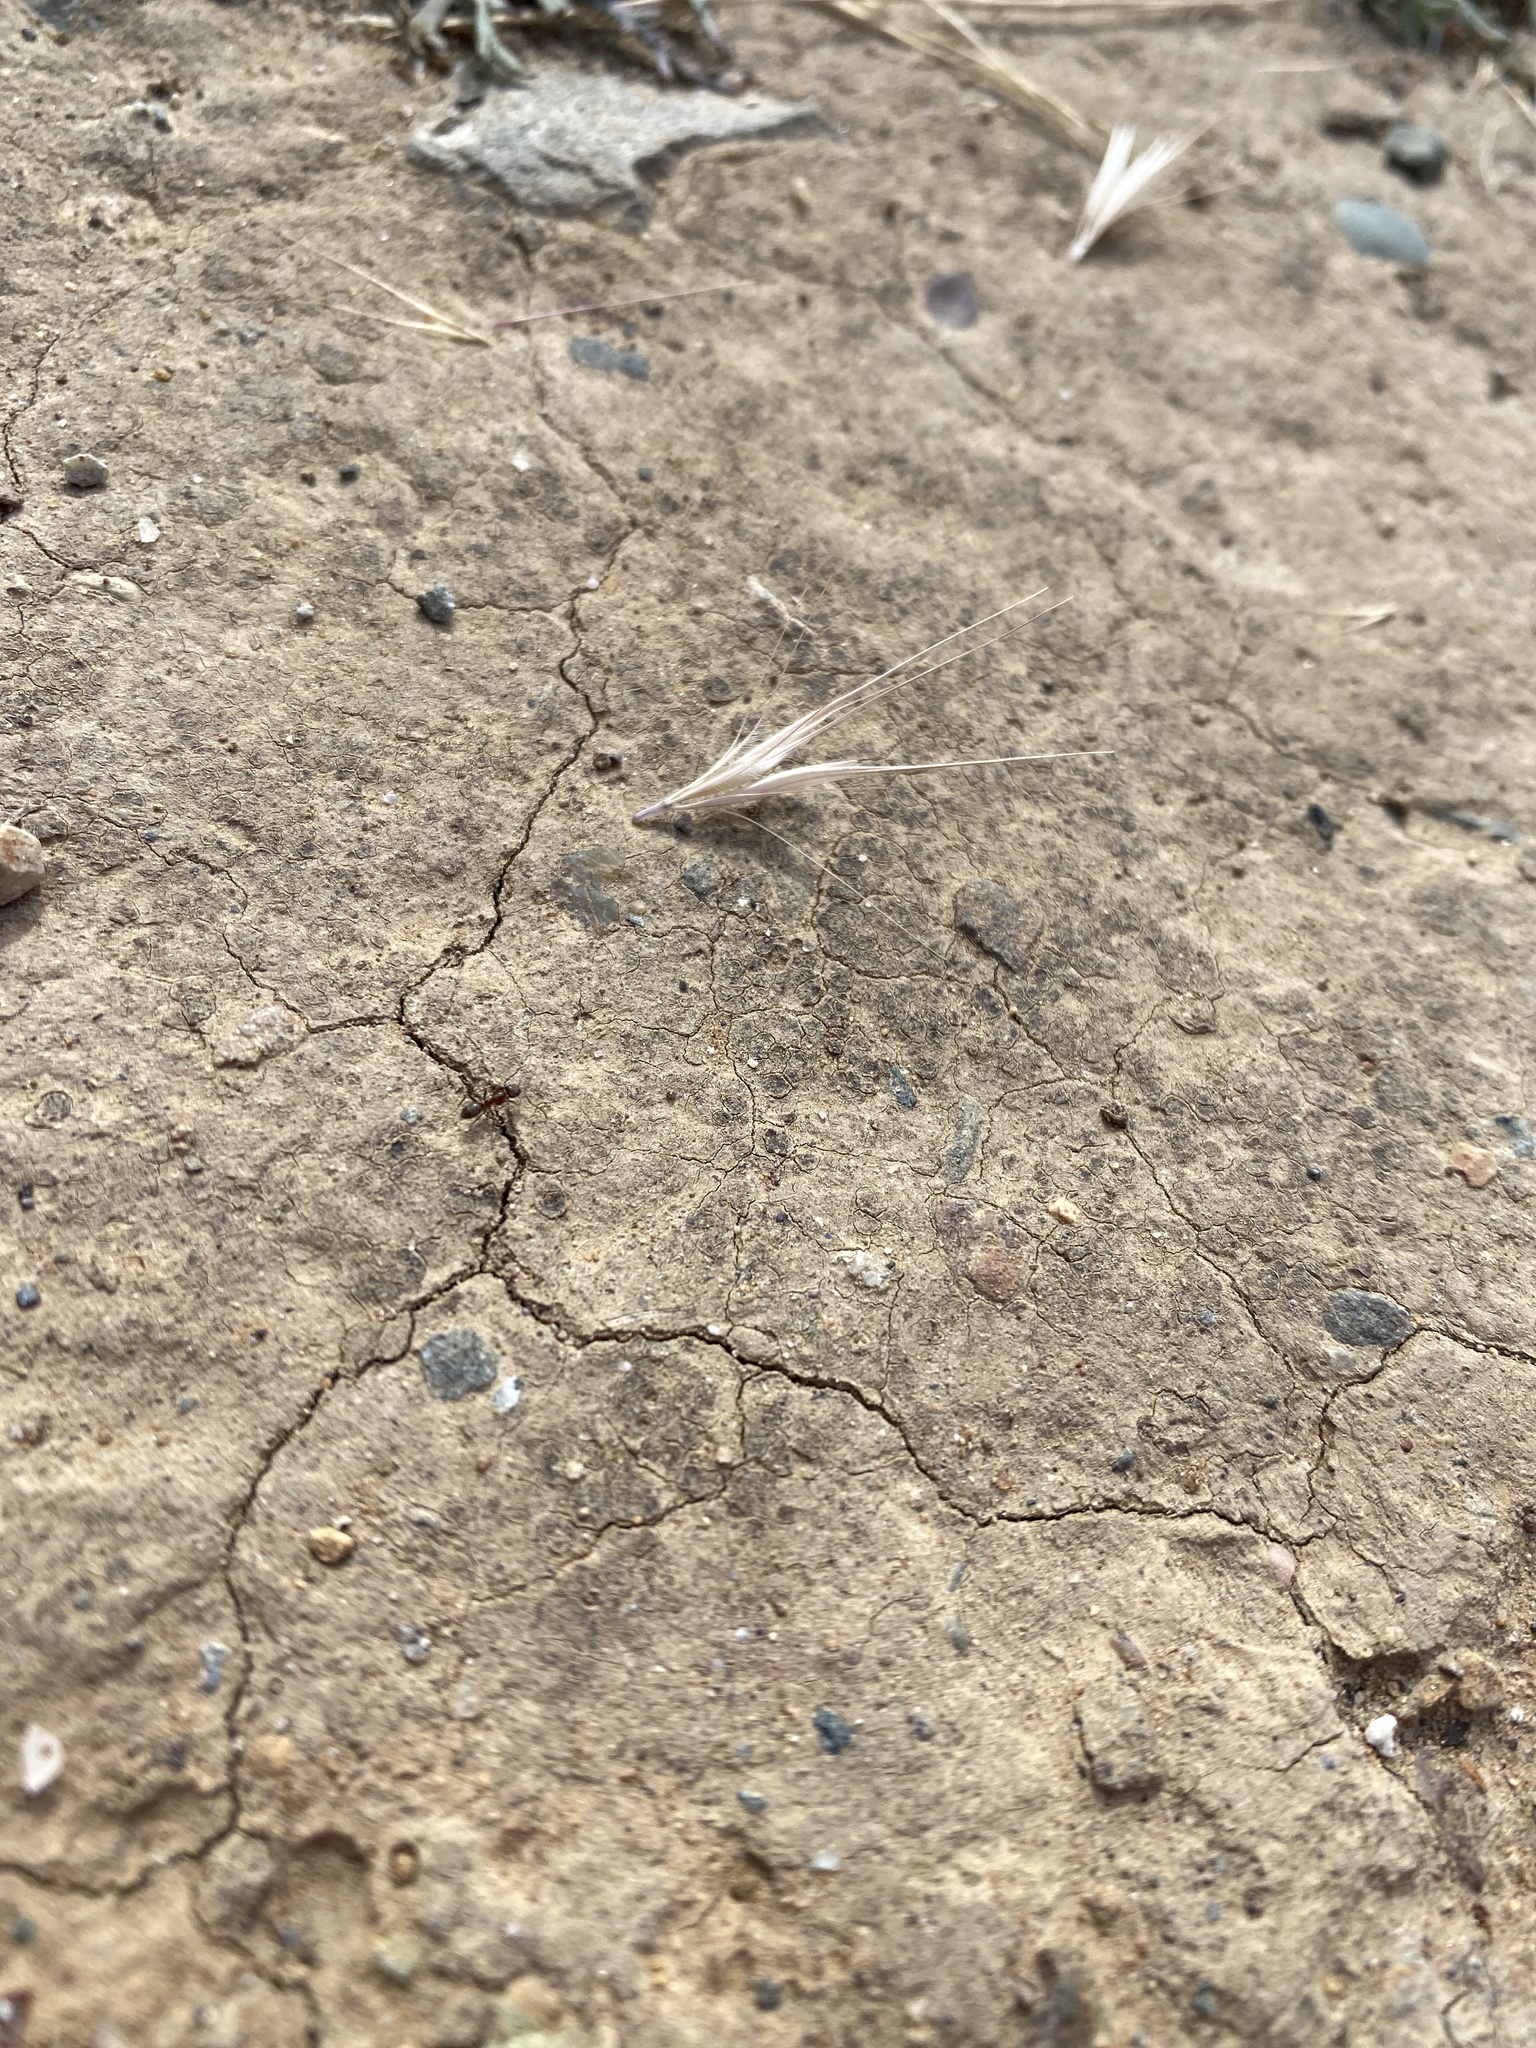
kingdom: Animalia
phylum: Arthropoda
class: Insecta
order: Hymenoptera
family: Formicidae
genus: Linepithema
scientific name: Linepithema humile
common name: Argentine ant
